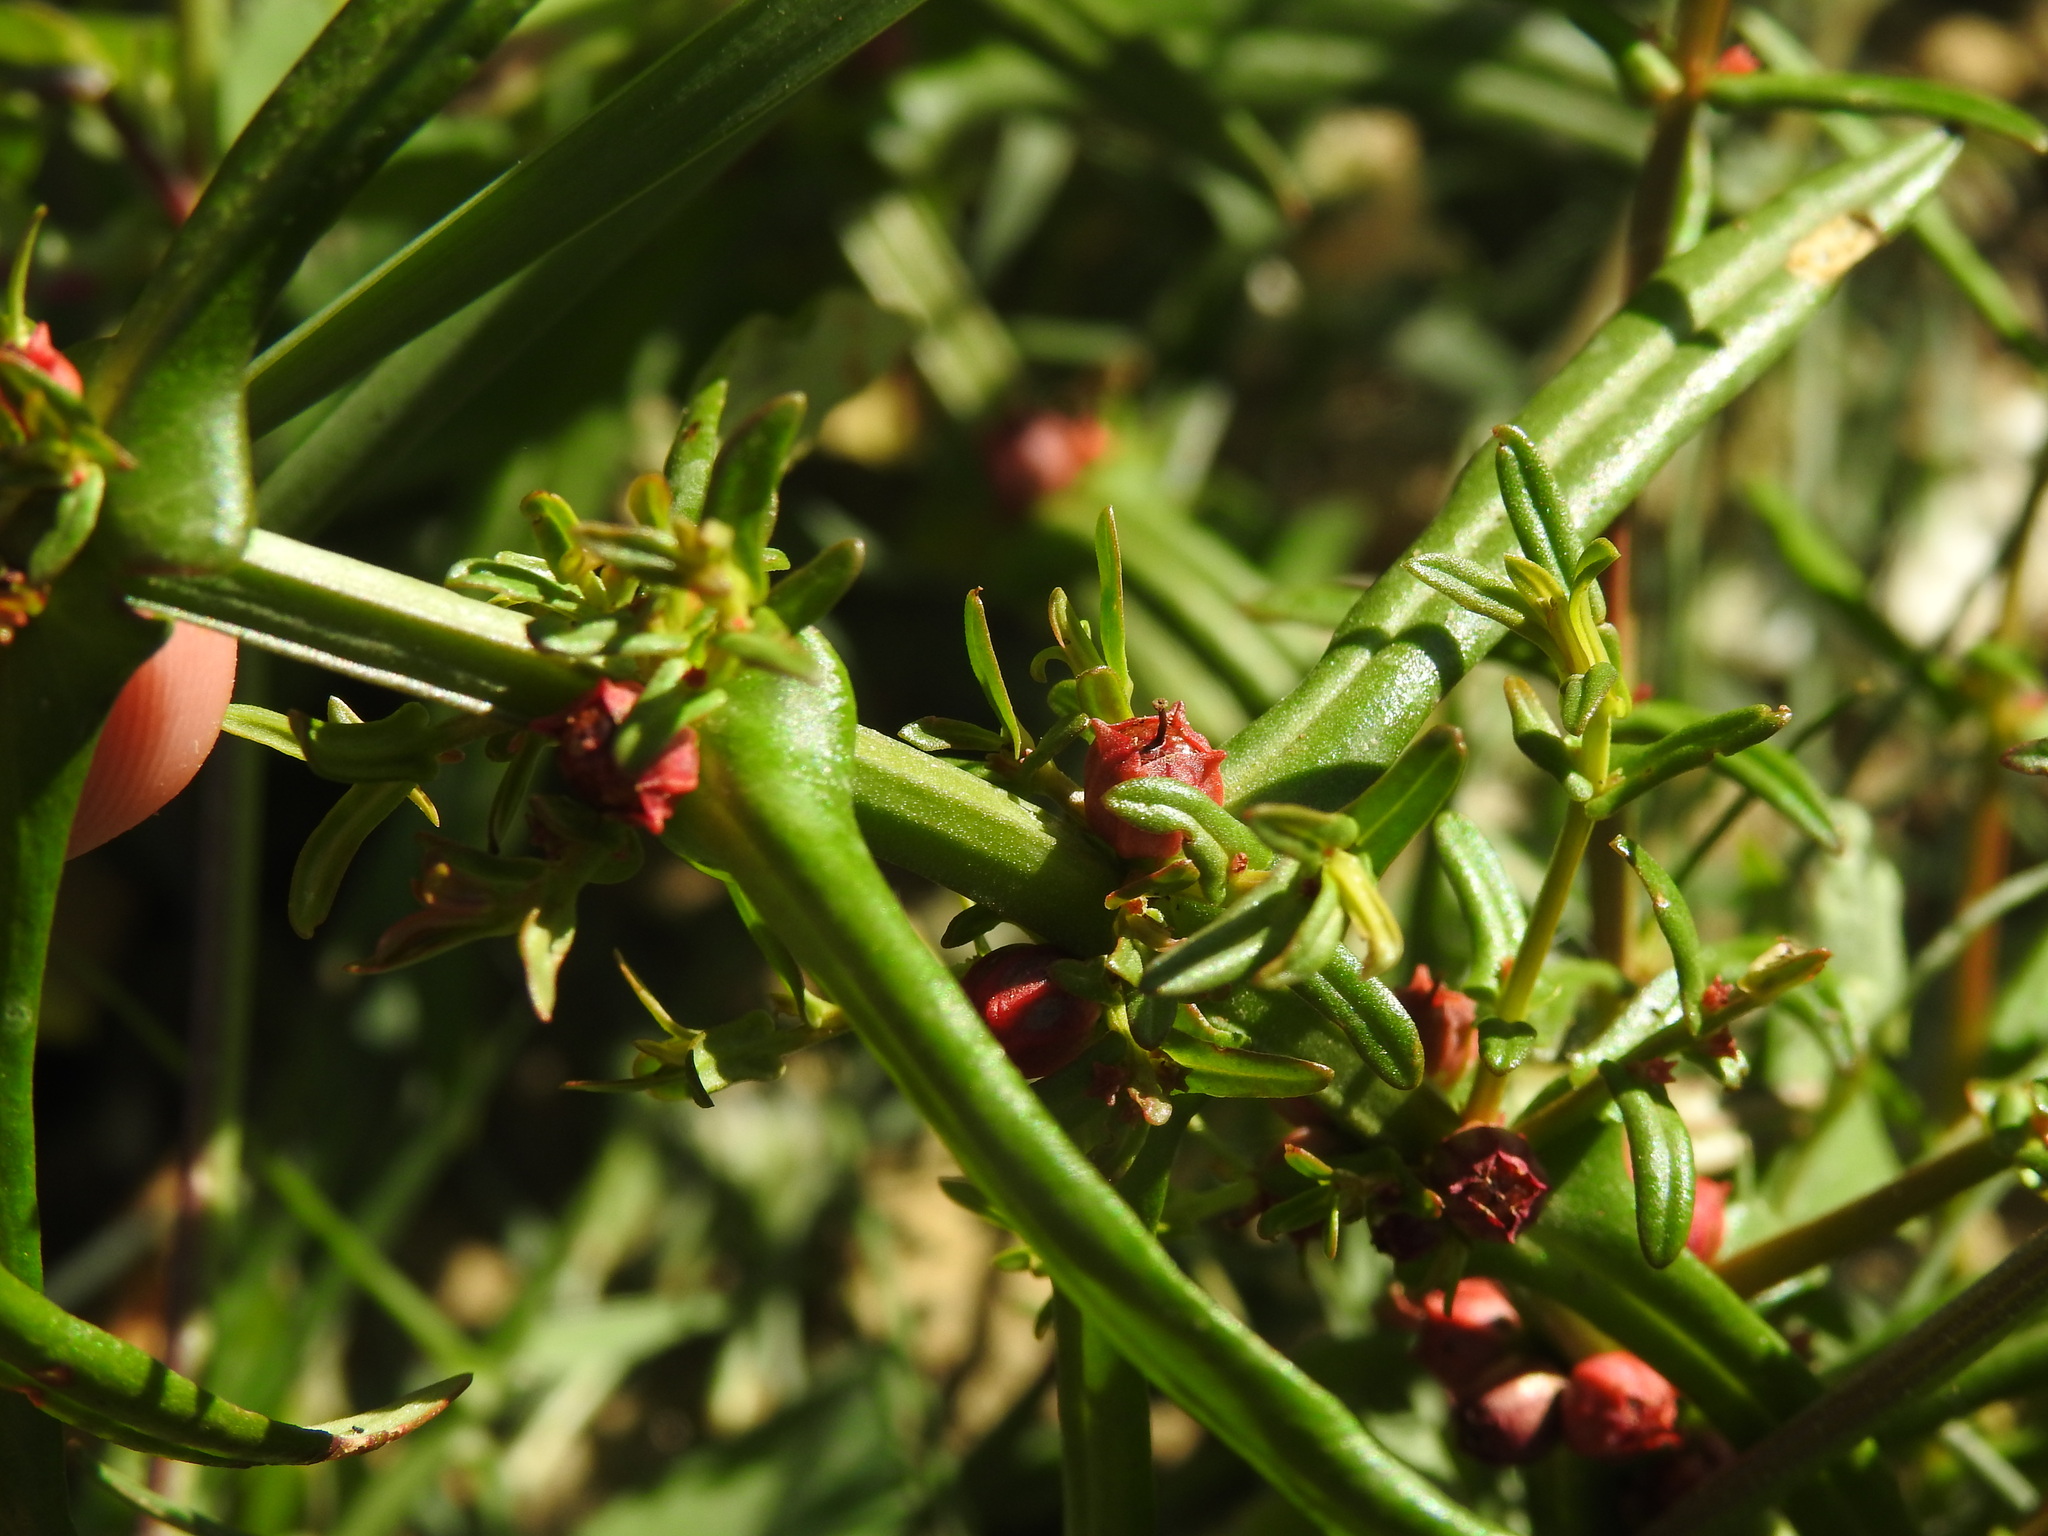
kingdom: Plantae
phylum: Tracheophyta
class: Magnoliopsida
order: Myrtales
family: Lythraceae
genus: Ammannia
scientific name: Ammannia coccinea
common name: Valley redstem
